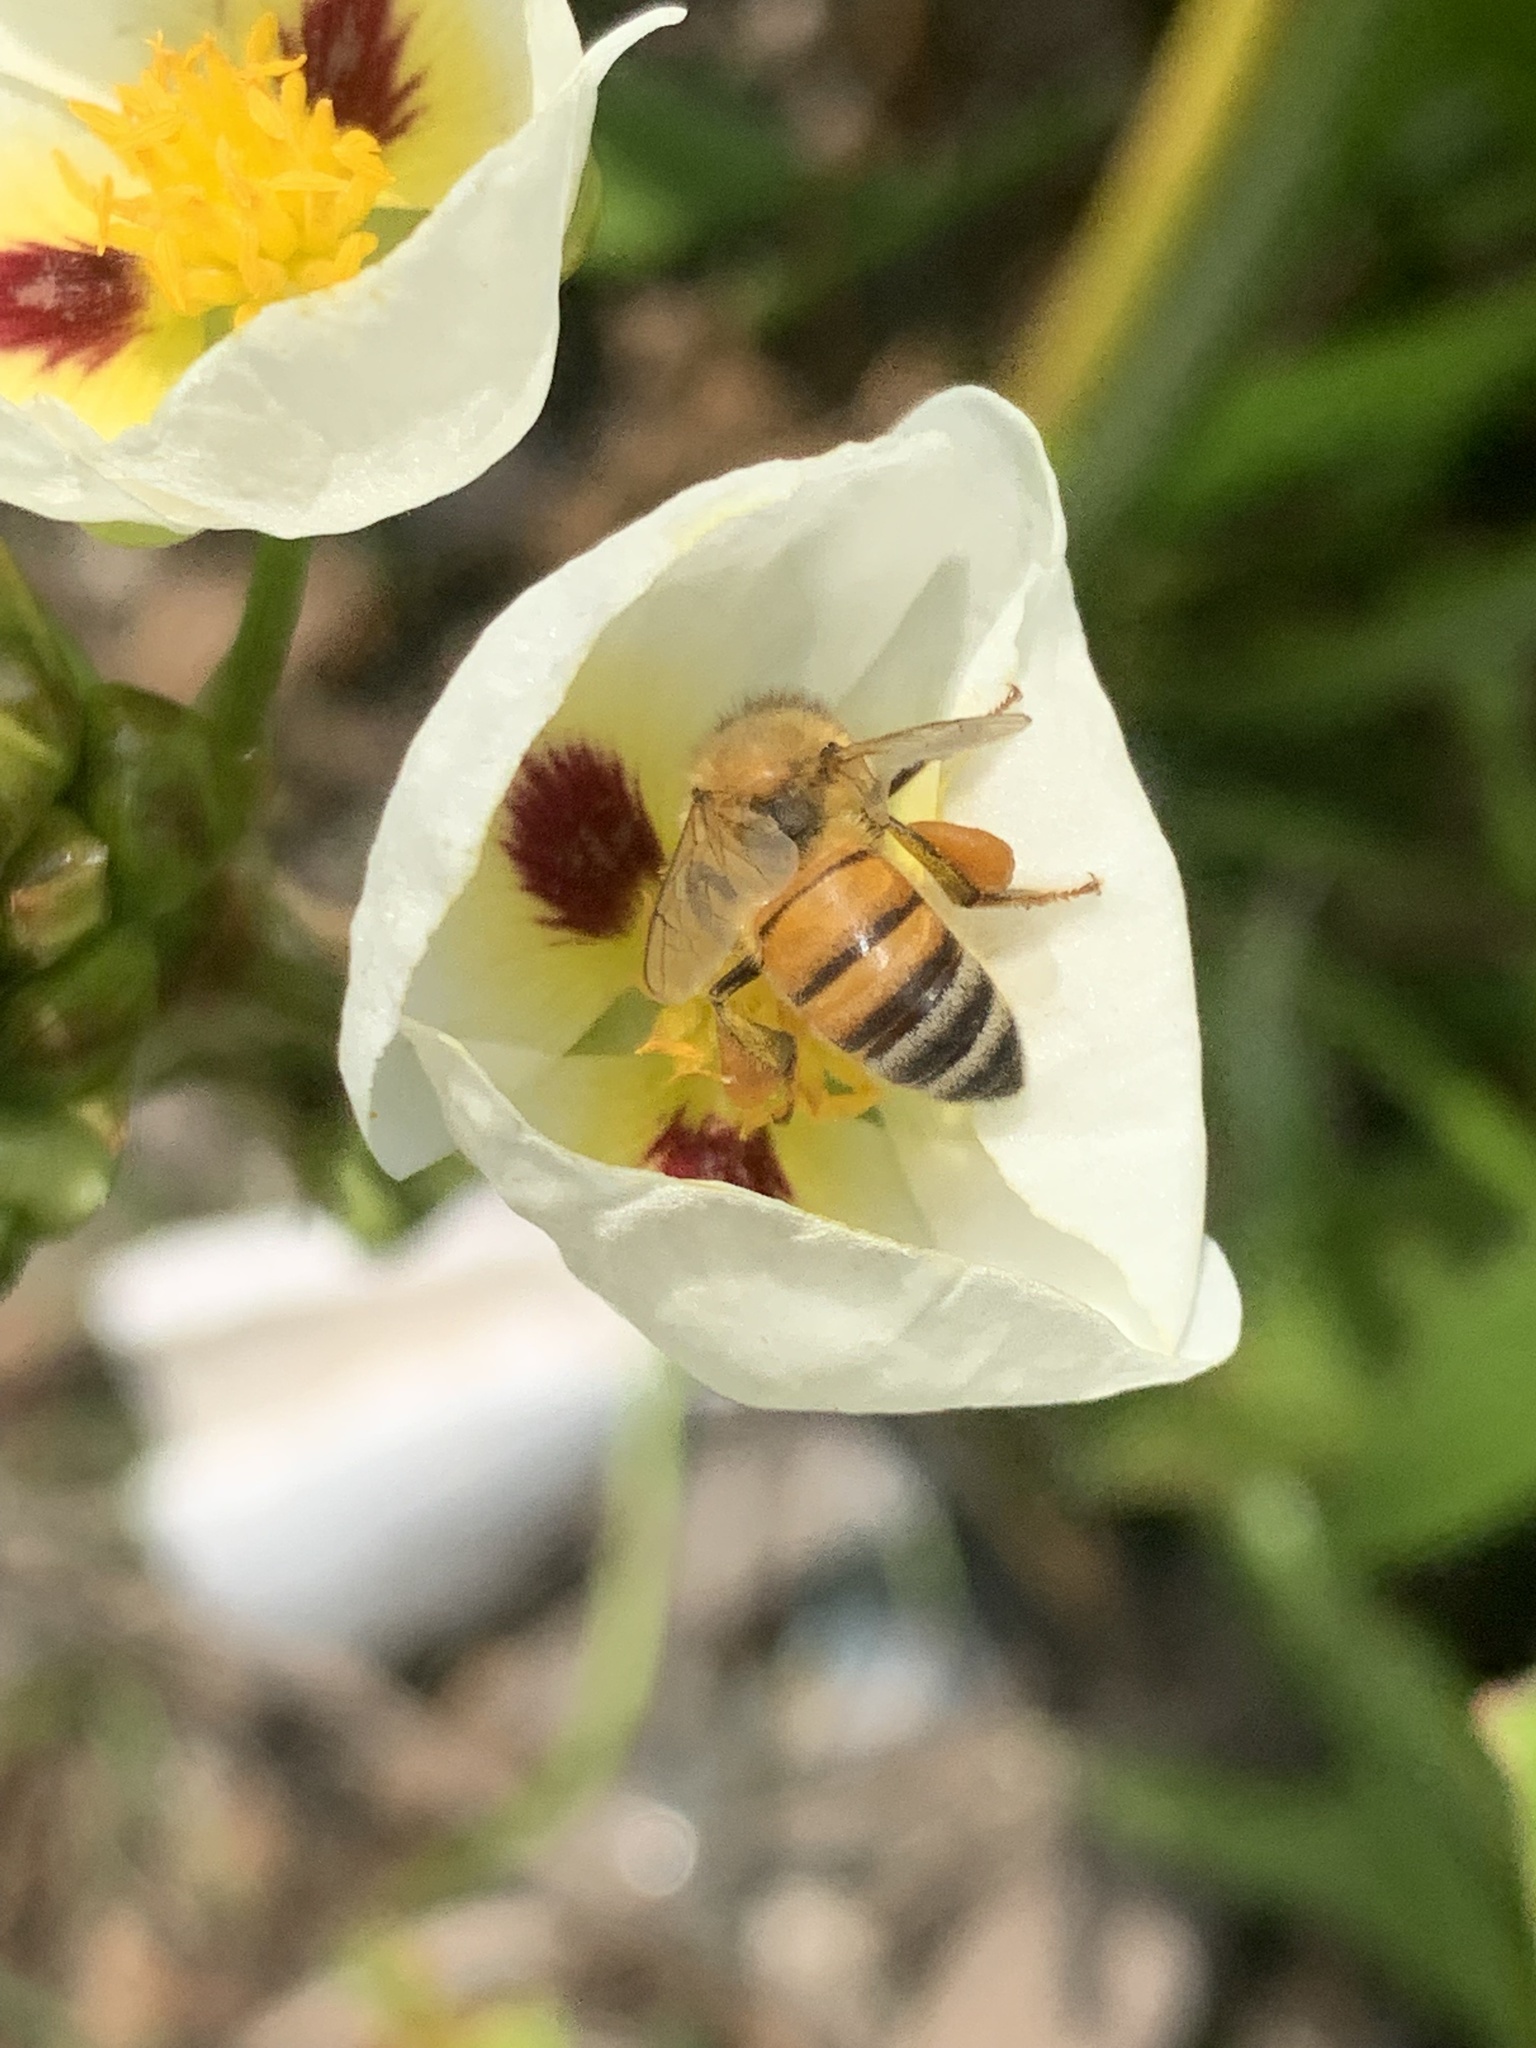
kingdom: Animalia
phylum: Arthropoda
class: Insecta
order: Hymenoptera
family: Apidae
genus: Apis
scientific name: Apis mellifera
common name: Honey bee
